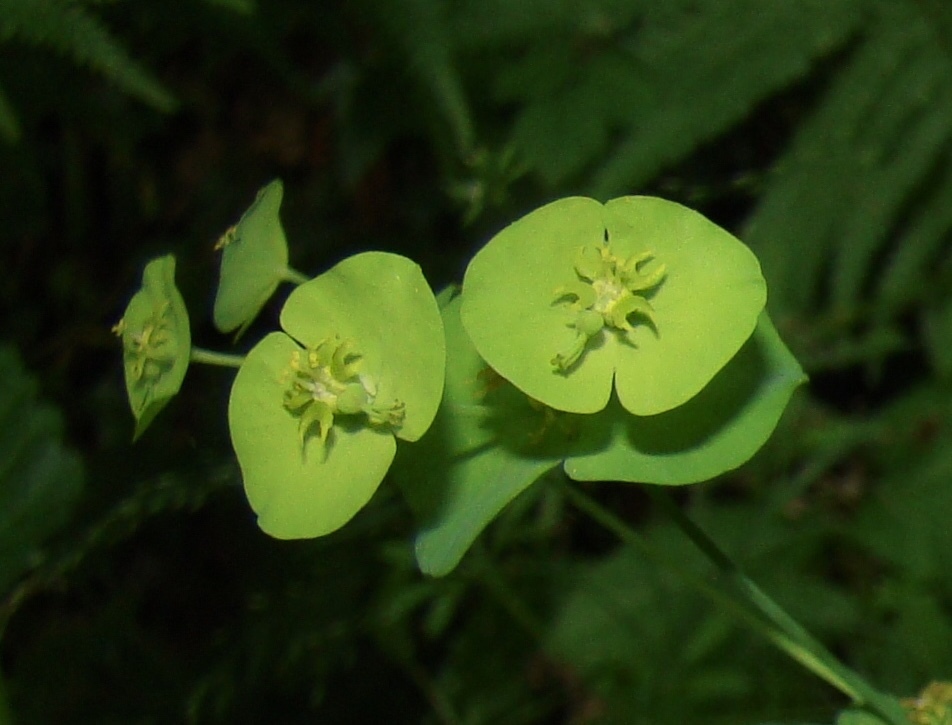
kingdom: Plantae
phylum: Tracheophyta
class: Magnoliopsida
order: Malpighiales
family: Euphorbiaceae
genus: Euphorbia
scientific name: Euphorbia amygdaloides
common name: Wood spurge
